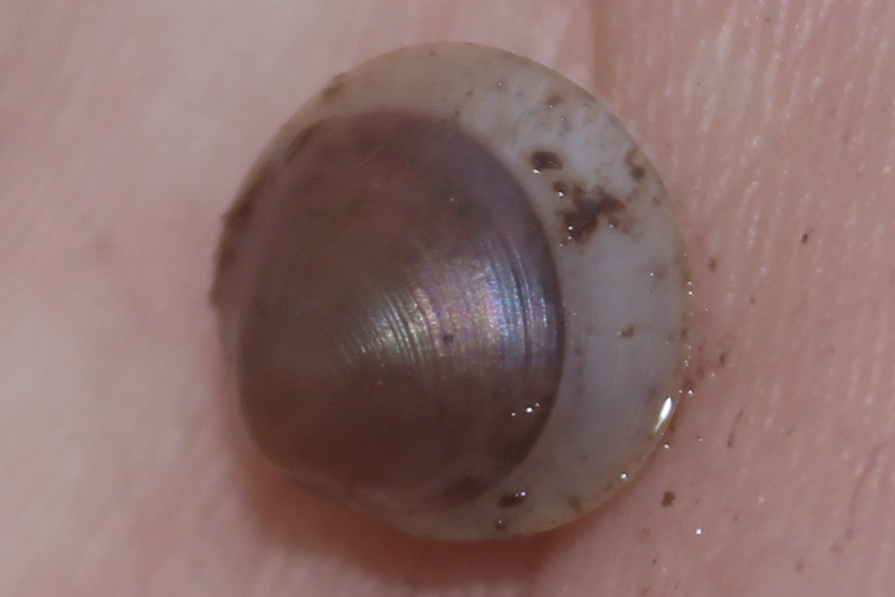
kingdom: Animalia
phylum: Mollusca
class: Bivalvia
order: Sphaeriida
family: Sphaeriidae
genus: Musculium
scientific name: Musculium partumeium
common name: Swamp fingernailclam
